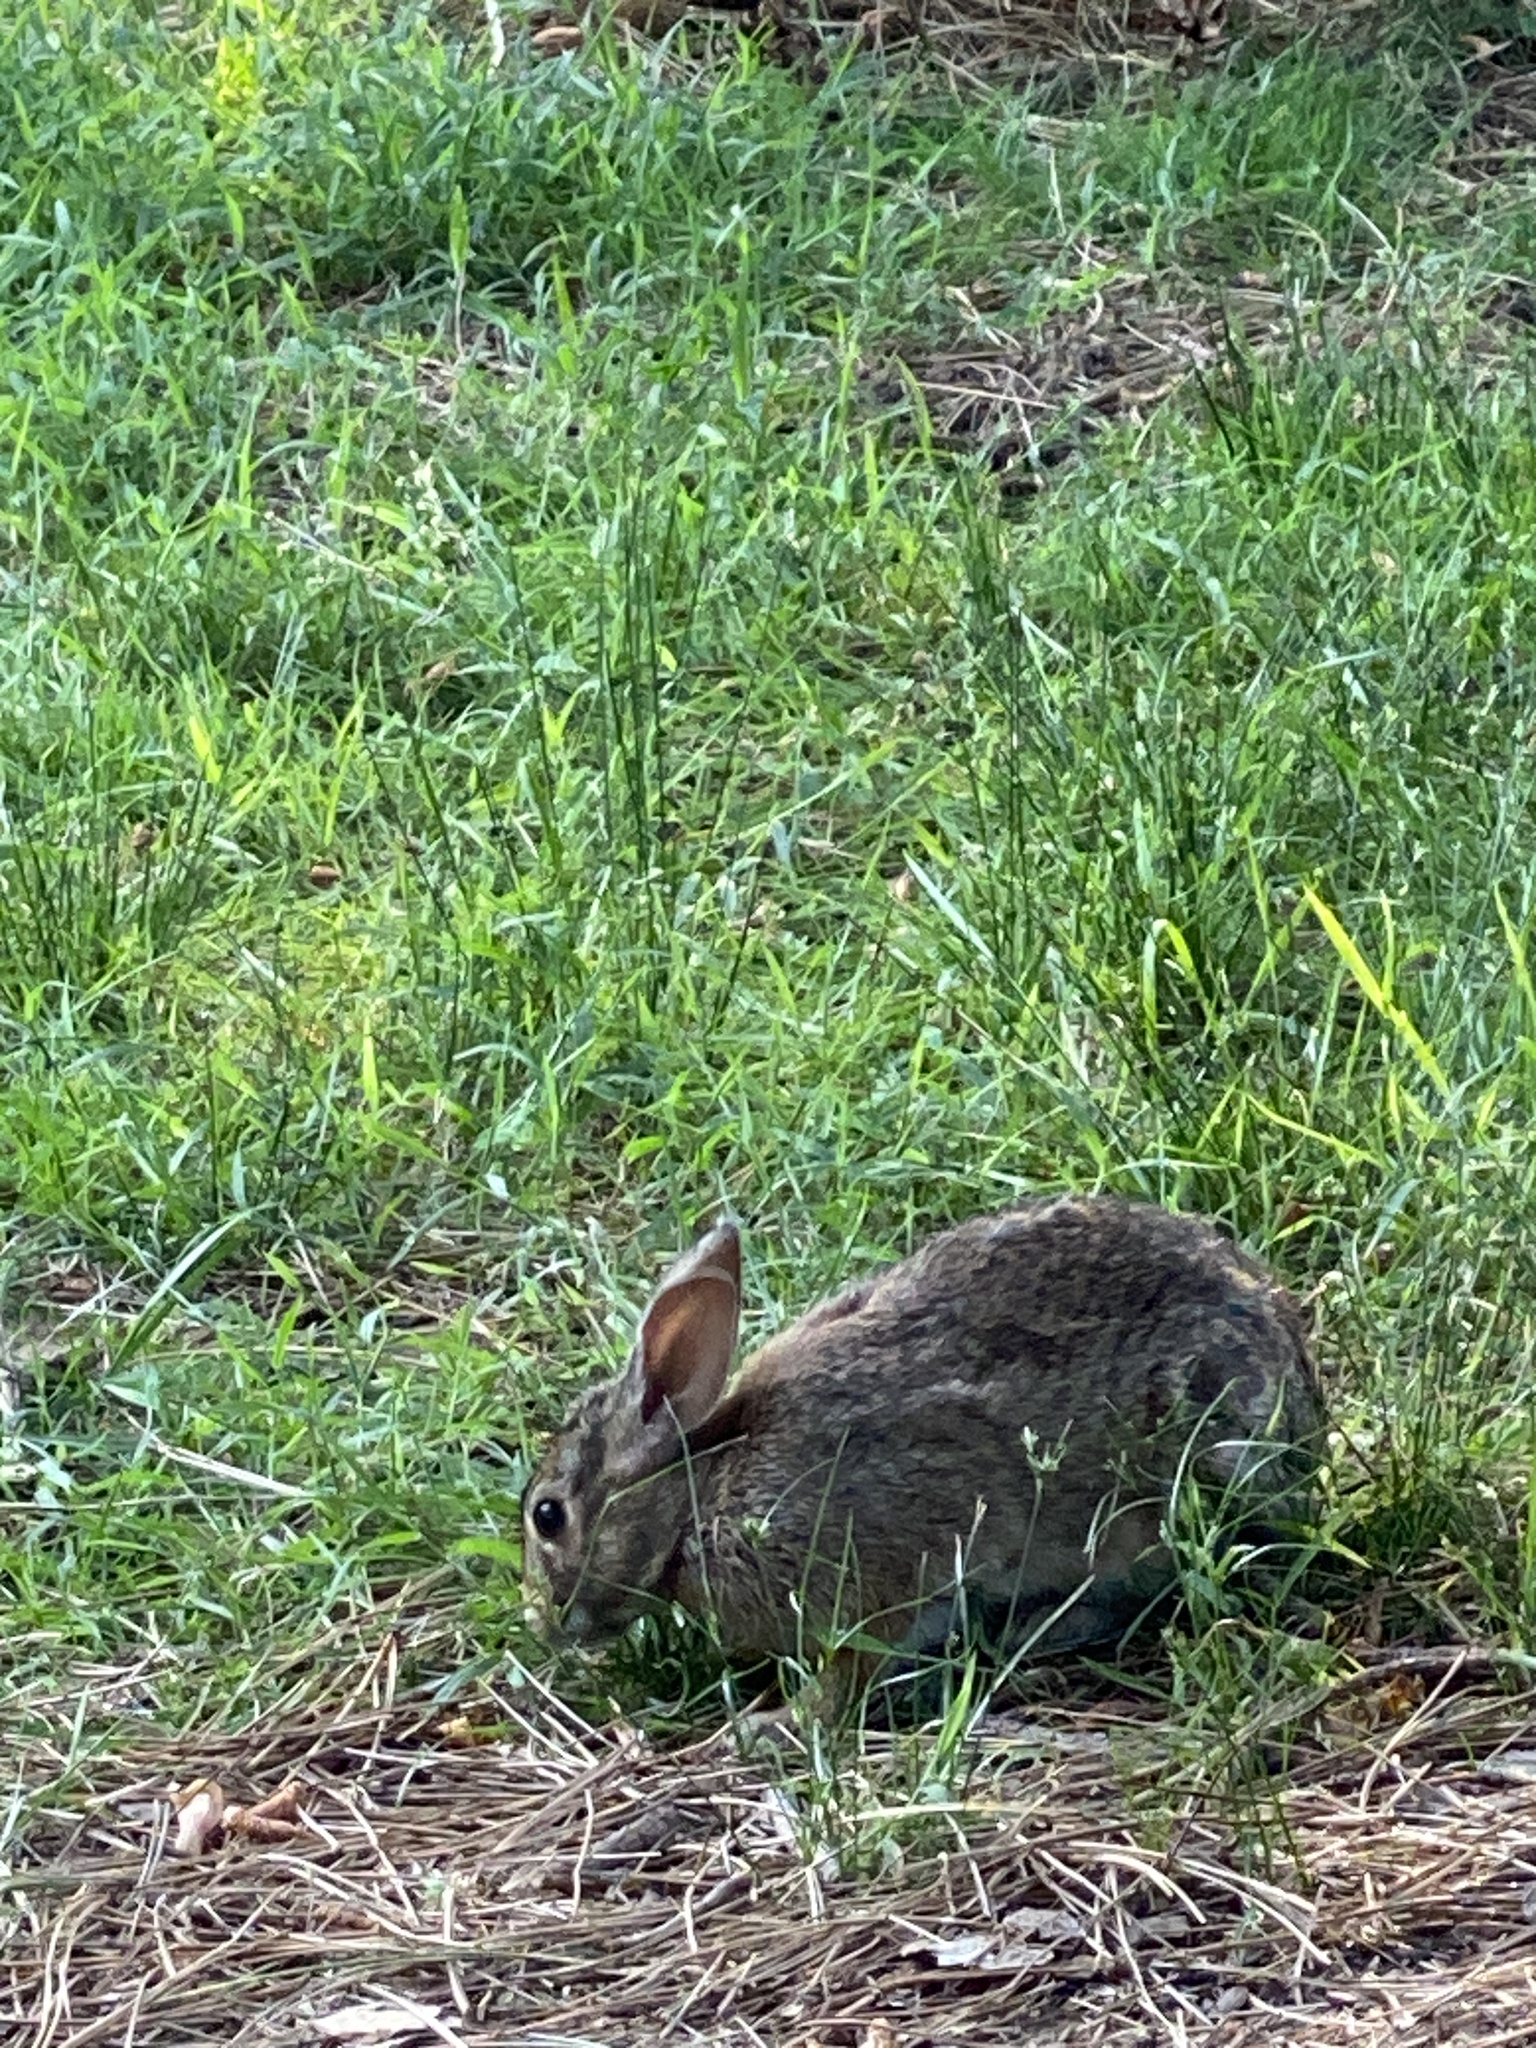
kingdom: Animalia
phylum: Chordata
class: Mammalia
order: Lagomorpha
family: Leporidae
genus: Sylvilagus
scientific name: Sylvilagus floridanus
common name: Eastern cottontail
